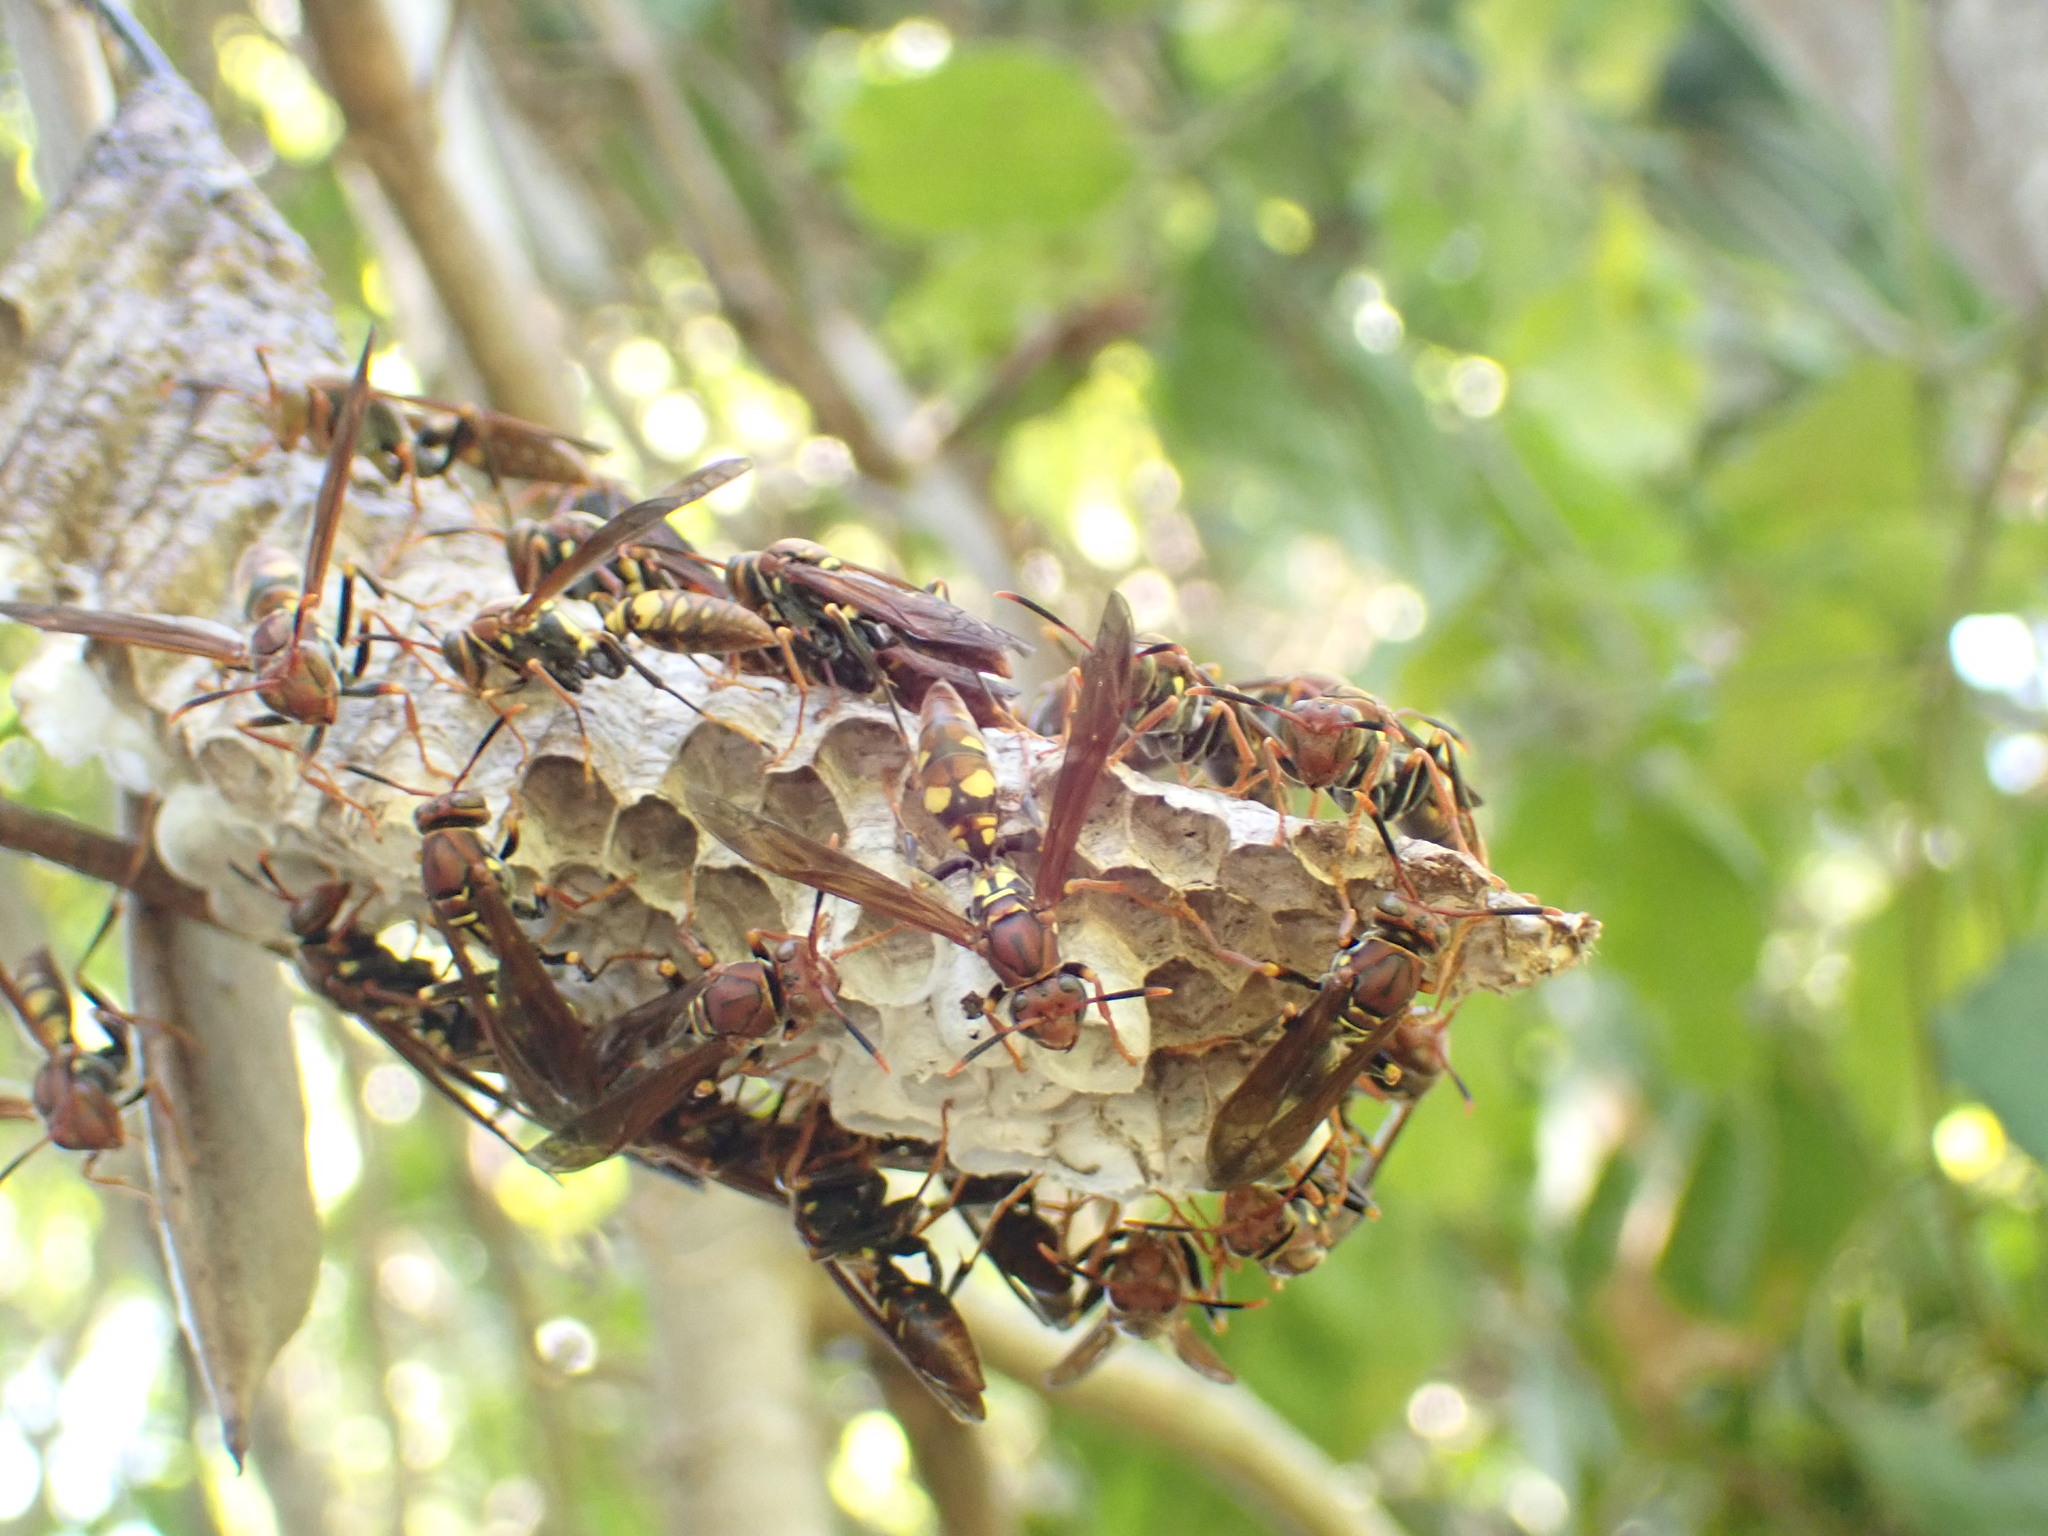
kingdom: Animalia
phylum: Arthropoda
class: Insecta
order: Hymenoptera
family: Eumenidae
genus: Polistes
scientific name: Polistes versicolor
